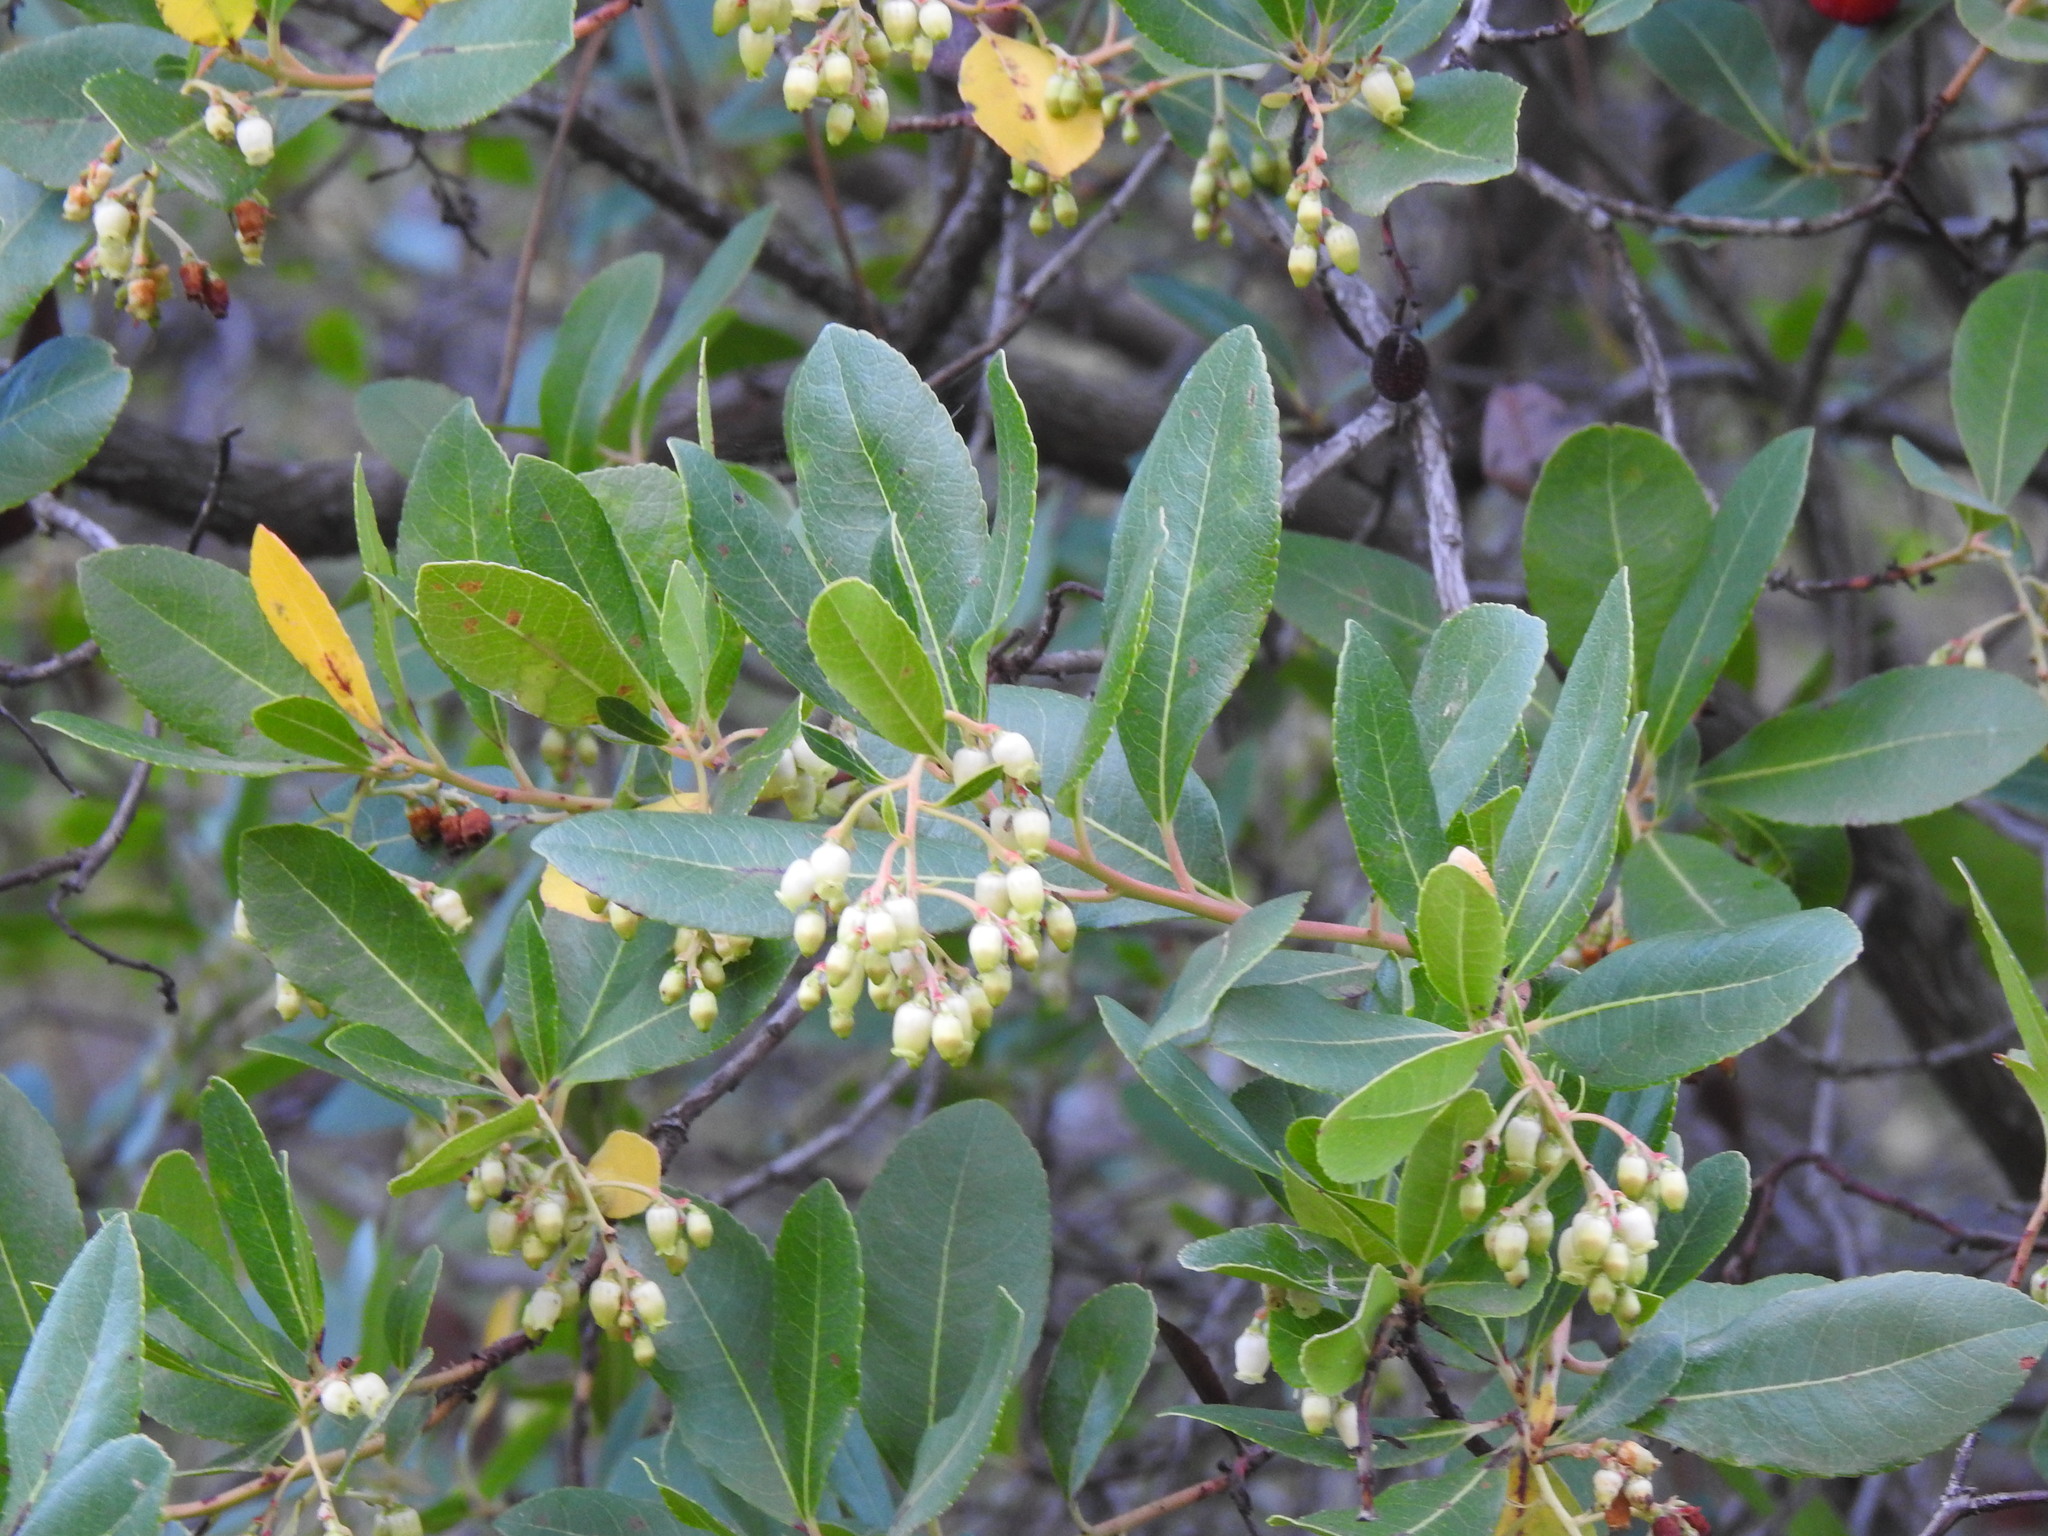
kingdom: Plantae
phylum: Tracheophyta
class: Magnoliopsida
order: Ericales
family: Ericaceae
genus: Arbutus
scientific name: Arbutus unedo
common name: Strawberry-tree
